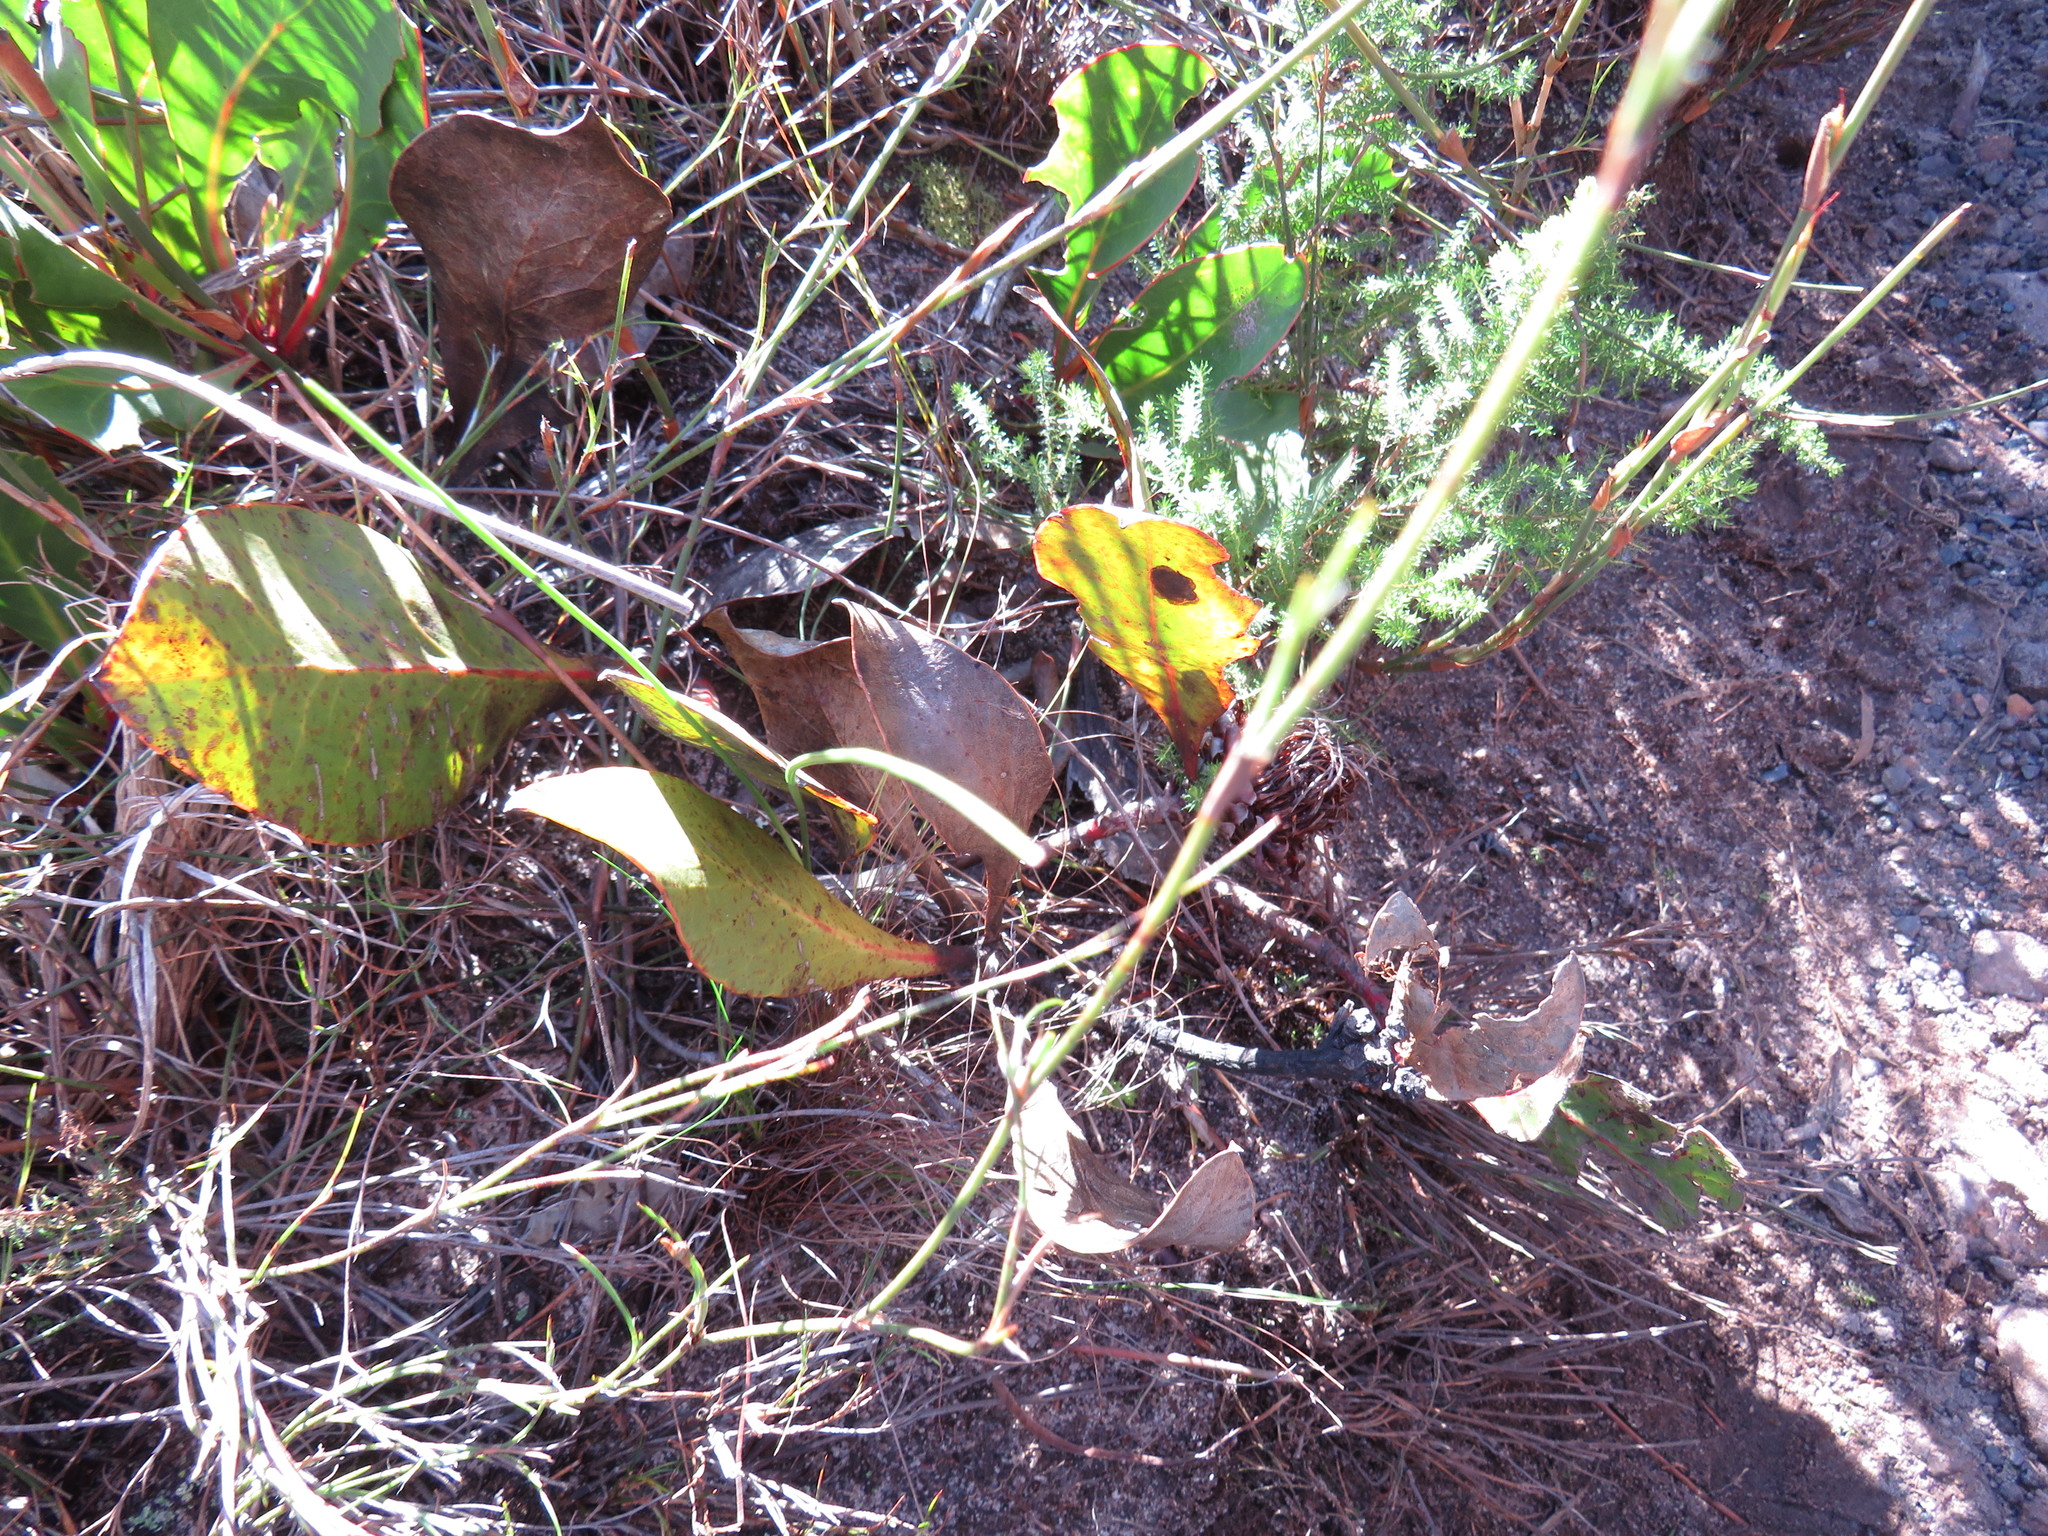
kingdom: Plantae
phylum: Tracheophyta
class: Magnoliopsida
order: Proteales
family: Proteaceae
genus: Protea
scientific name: Protea acaulos
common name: Common ground sugarbush
